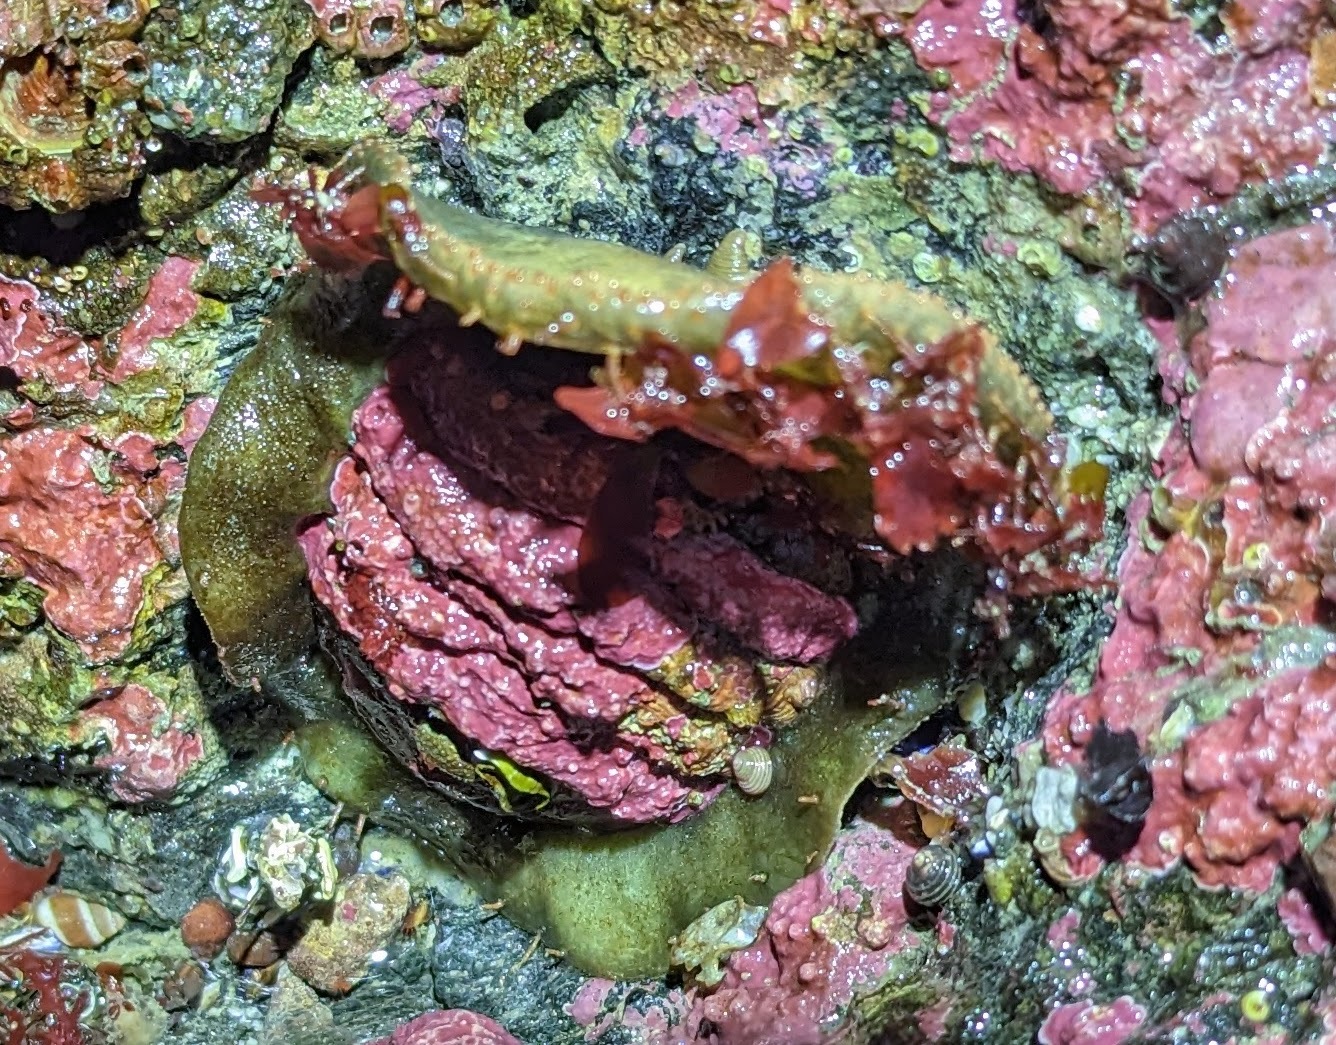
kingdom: Animalia
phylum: Mollusca
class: Polyplacophora
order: Chitonida
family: Mopaliidae
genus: Placiphorella
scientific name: Placiphorella rufa
